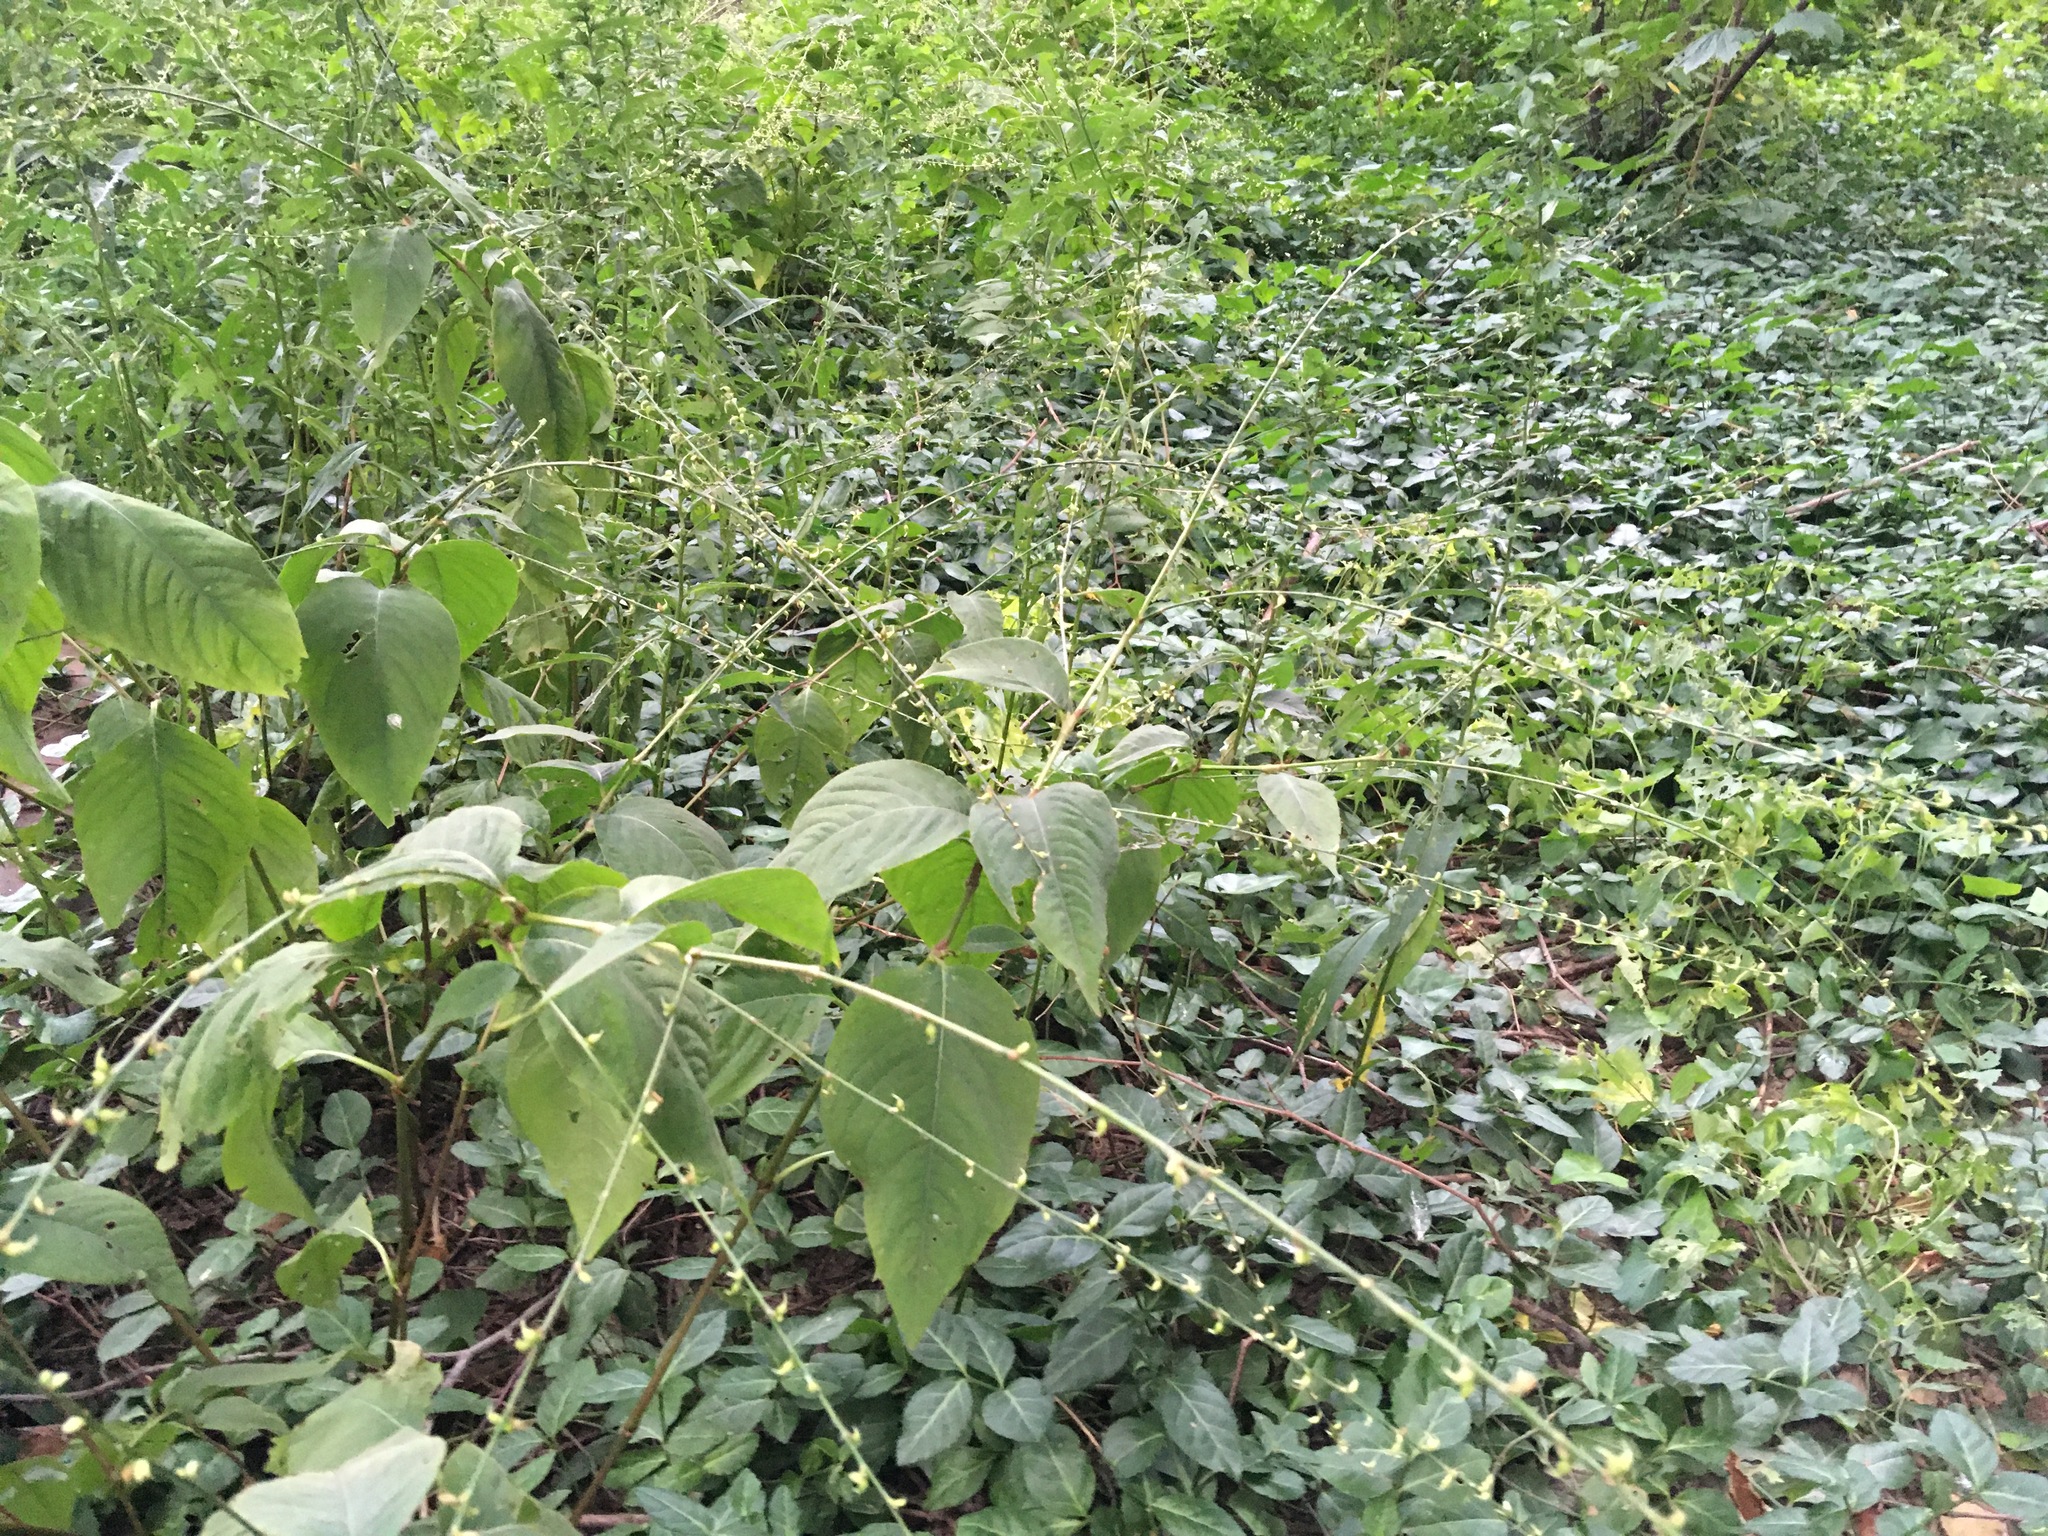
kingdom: Plantae
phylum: Tracheophyta
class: Magnoliopsida
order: Caryophyllales
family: Polygonaceae
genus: Persicaria
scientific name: Persicaria virginiana
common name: Jumpseed
